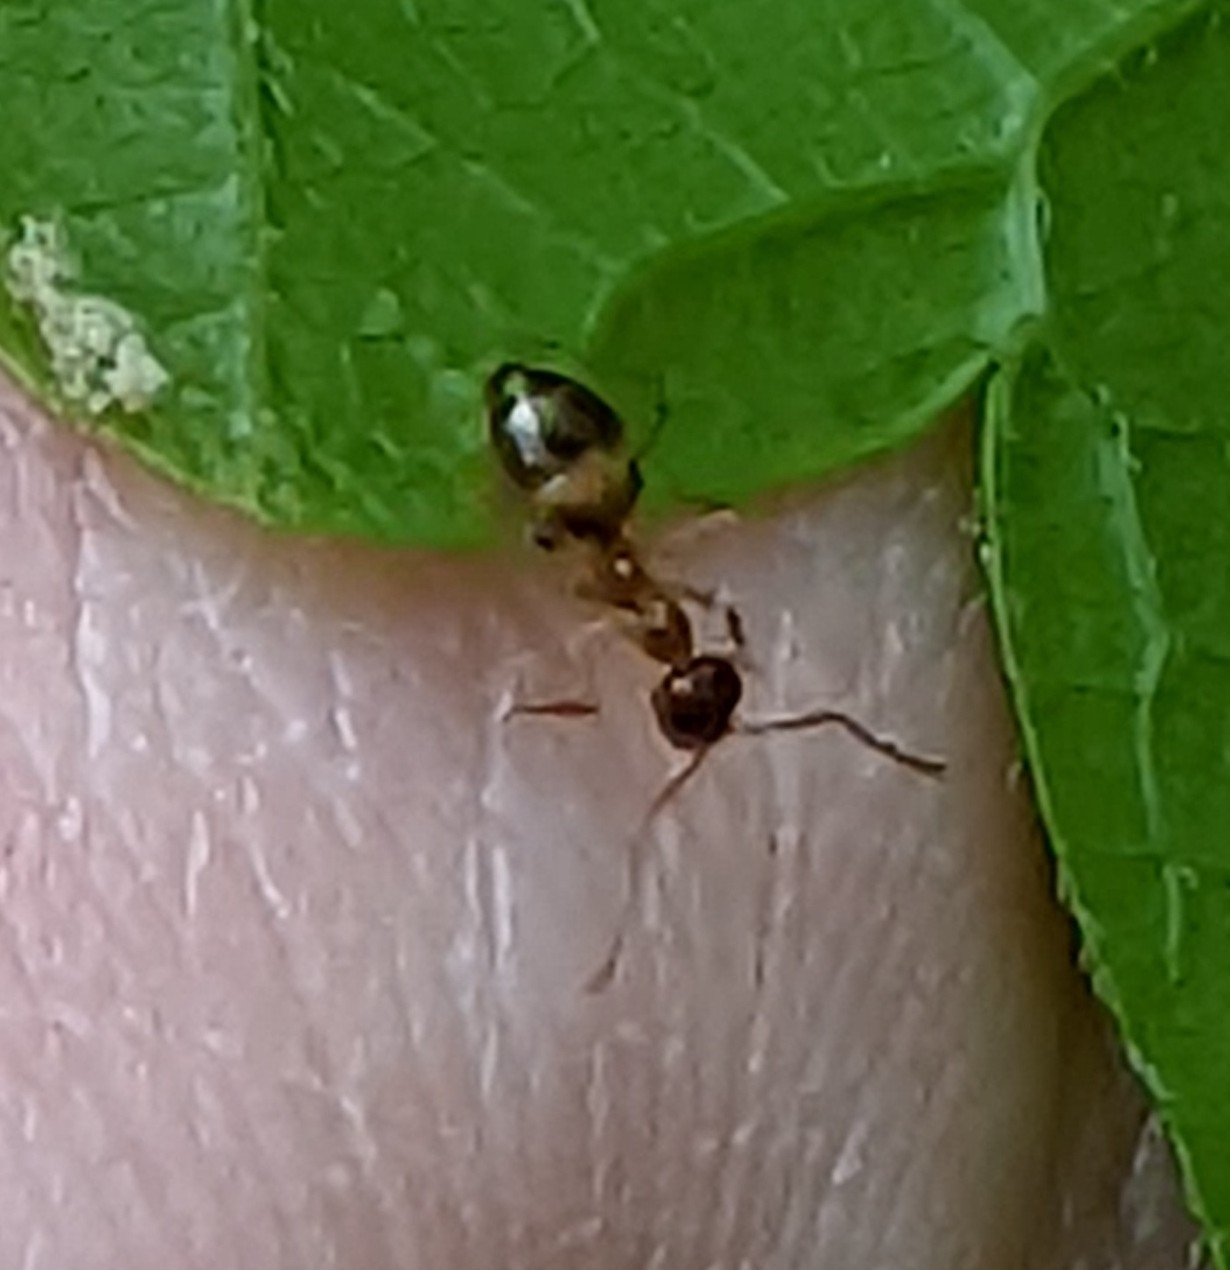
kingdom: Animalia
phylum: Arthropoda
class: Insecta
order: Hymenoptera
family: Formicidae
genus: Prenolepis
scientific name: Prenolepis imparis
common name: Small honey ant
